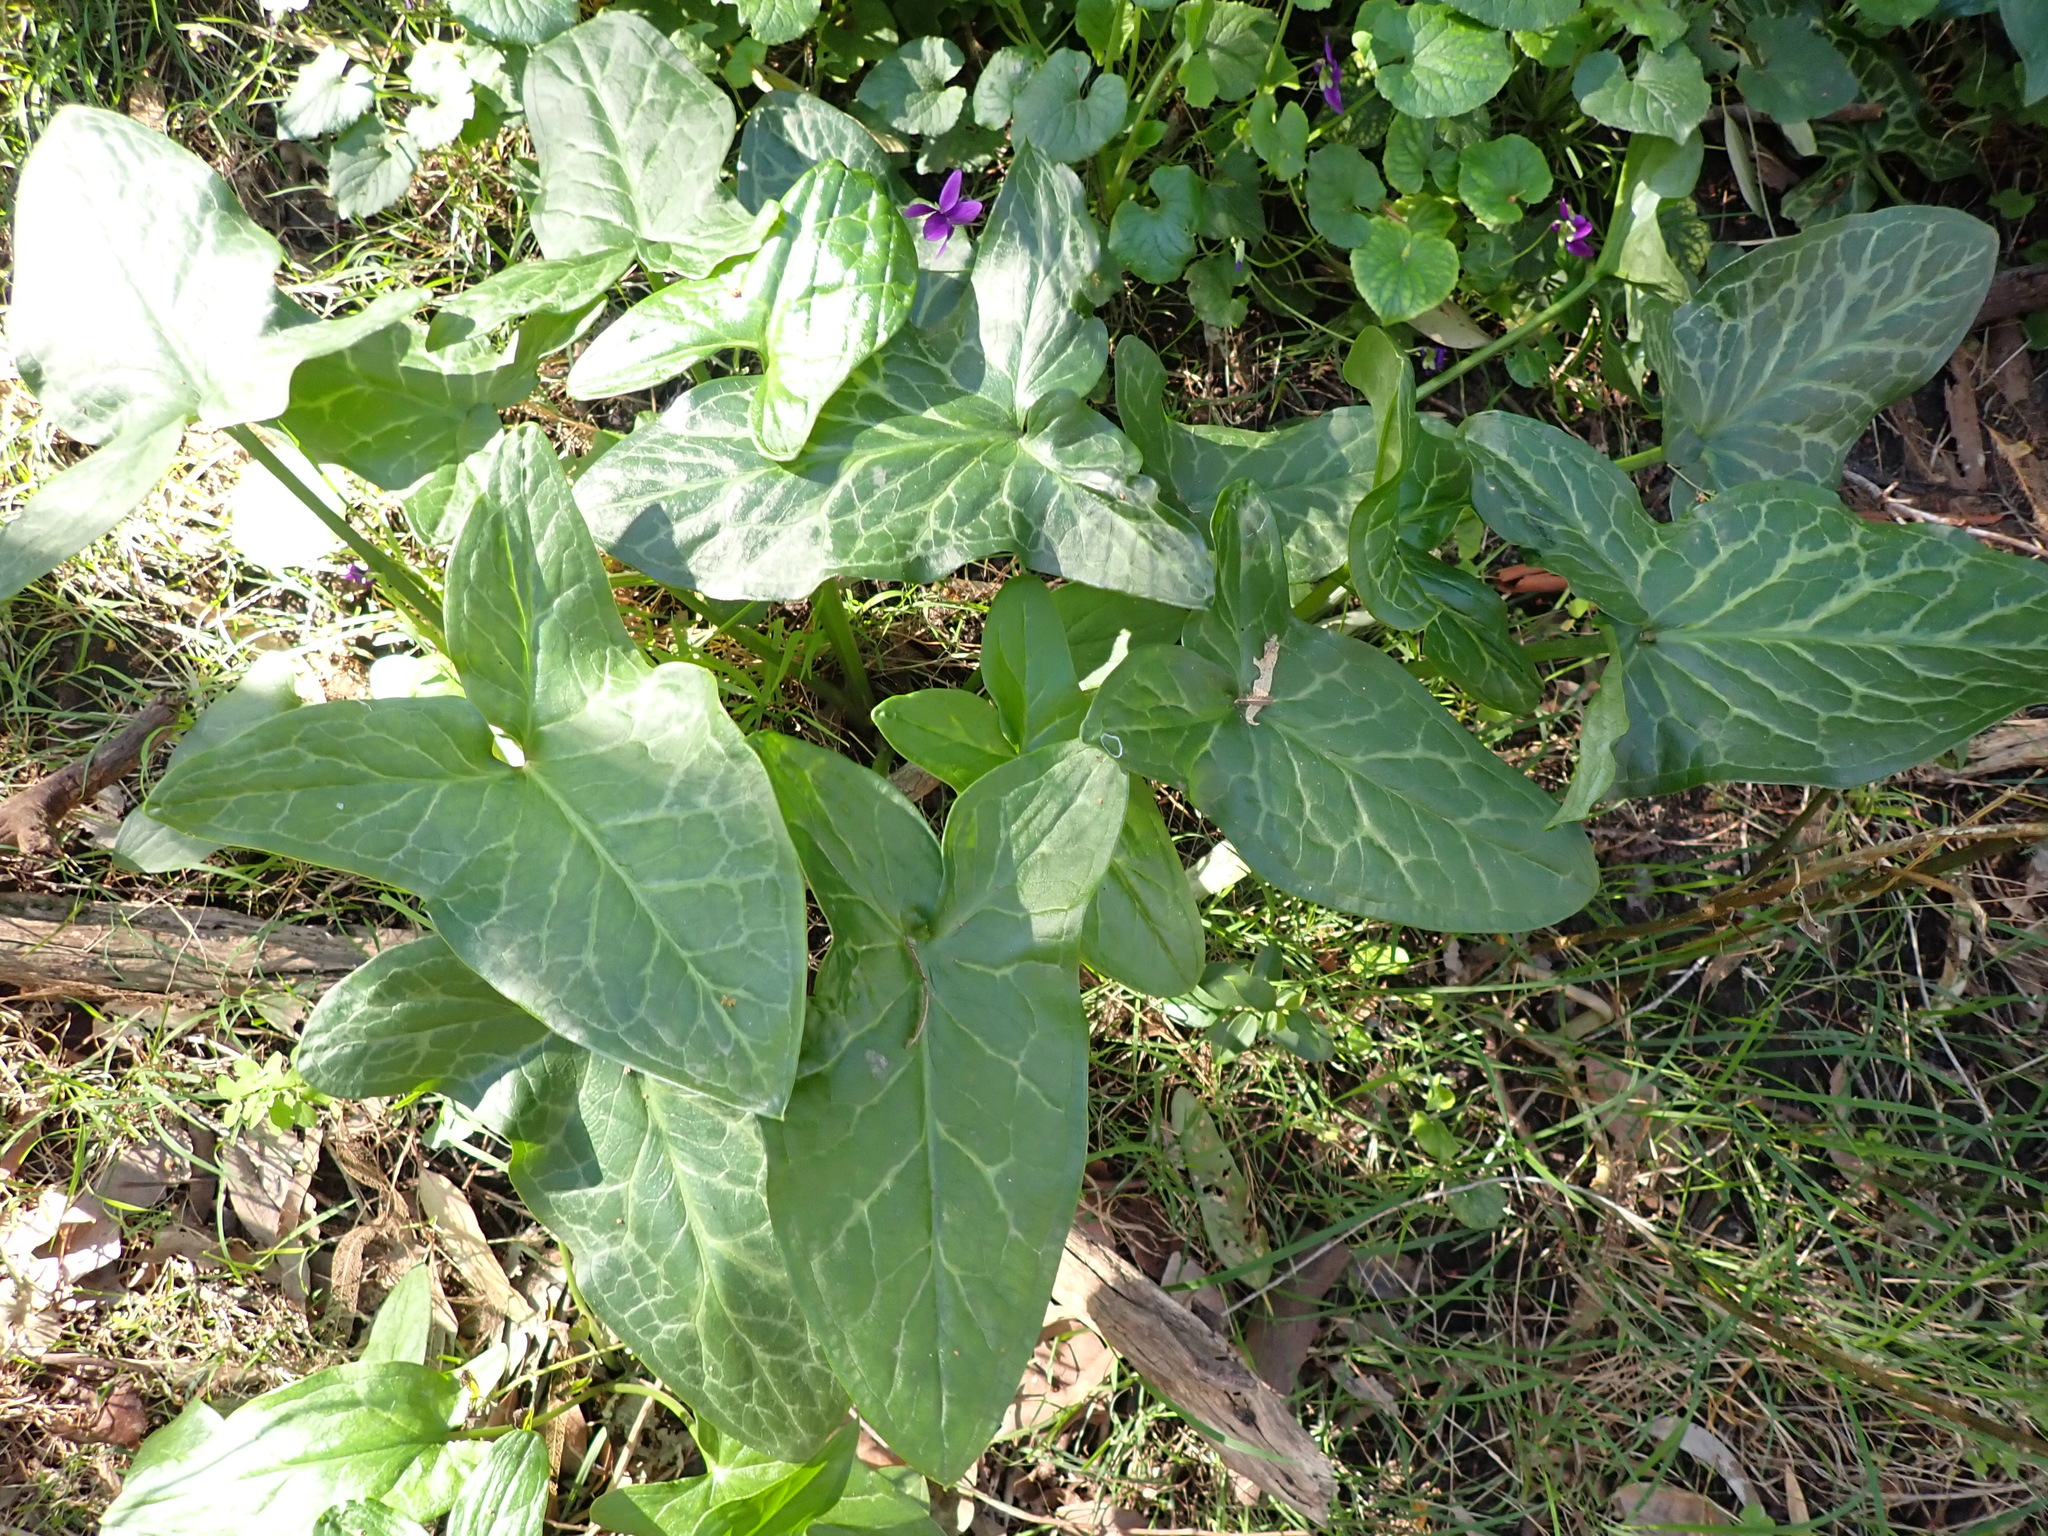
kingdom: Plantae
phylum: Tracheophyta
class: Liliopsida
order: Alismatales
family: Araceae
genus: Arum
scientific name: Arum italicum
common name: Italian lords-and-ladies
